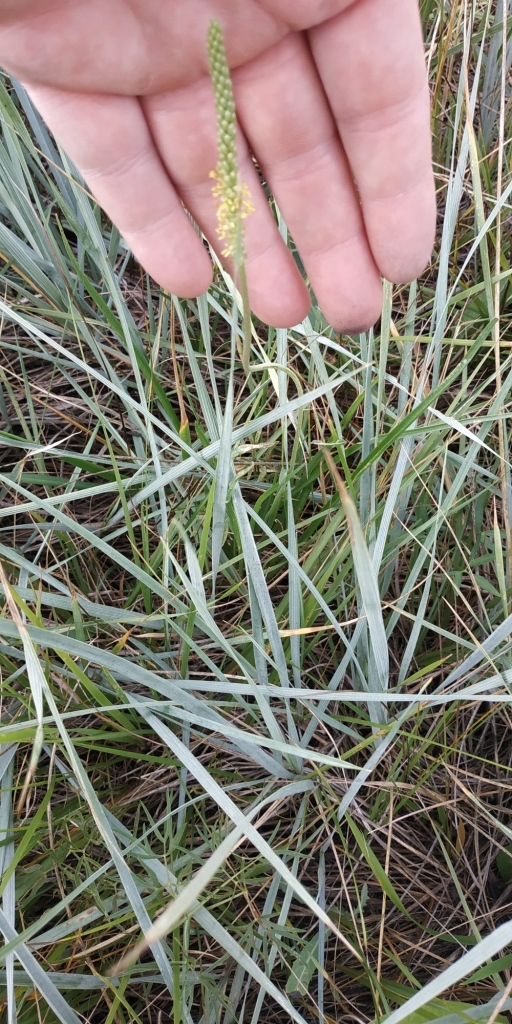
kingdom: Plantae
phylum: Tracheophyta
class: Magnoliopsida
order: Lamiales
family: Plantaginaceae
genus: Plantago
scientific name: Plantago salsa
